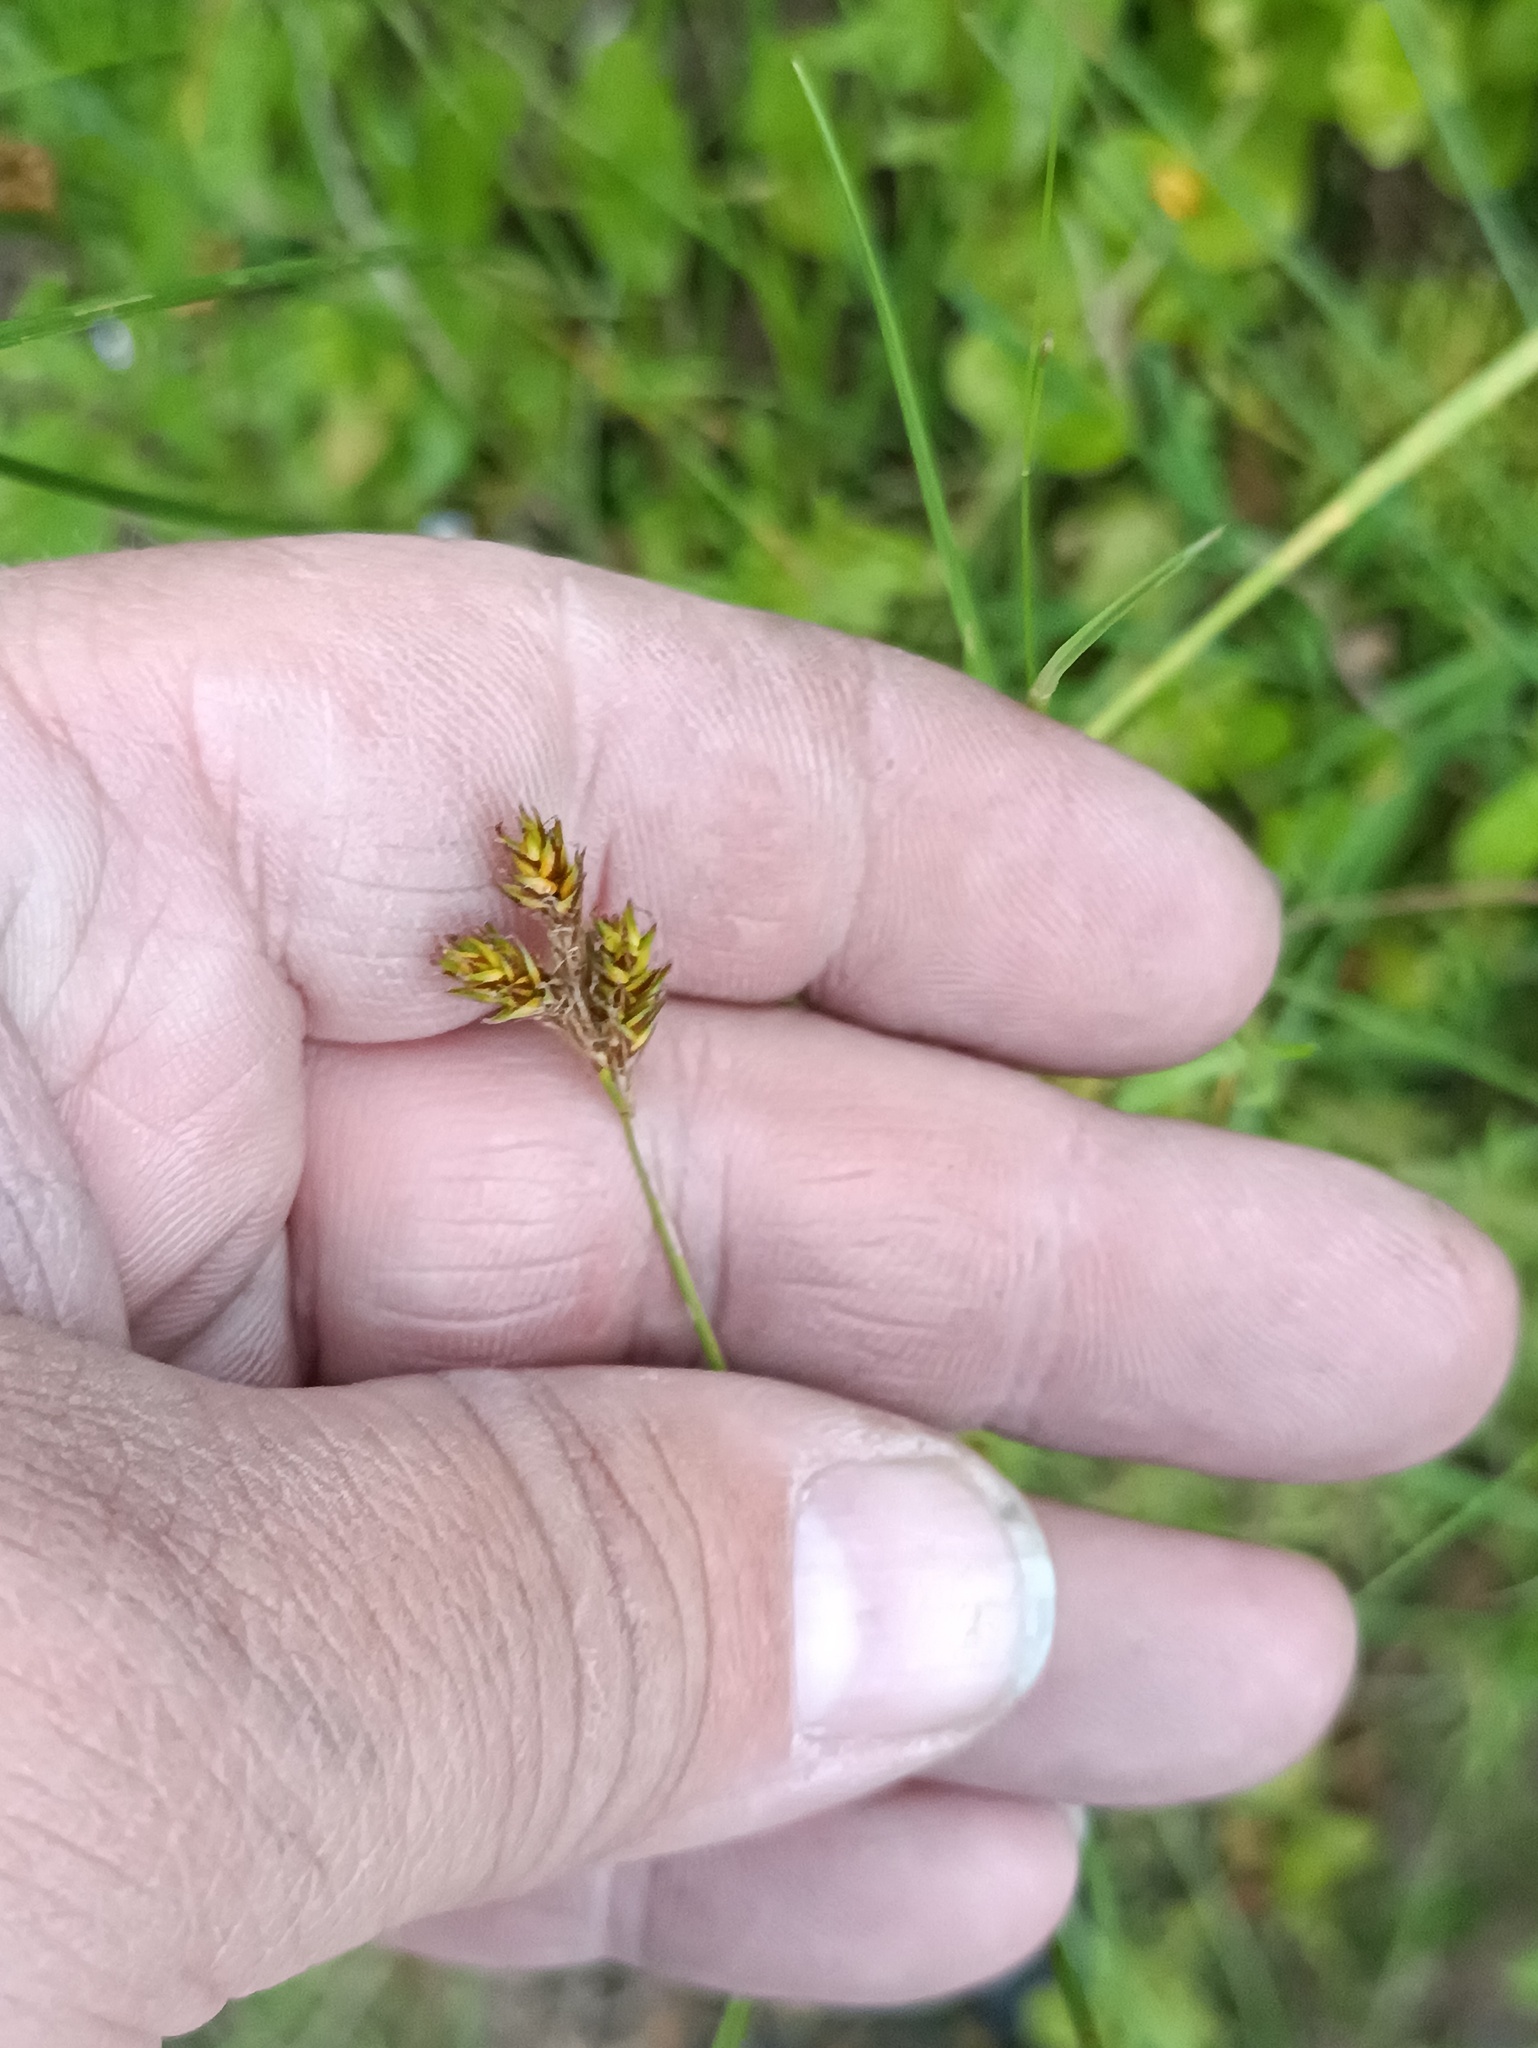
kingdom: Plantae
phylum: Tracheophyta
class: Liliopsida
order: Poales
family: Cyperaceae
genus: Carex
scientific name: Carex praecox
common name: Early sedge
